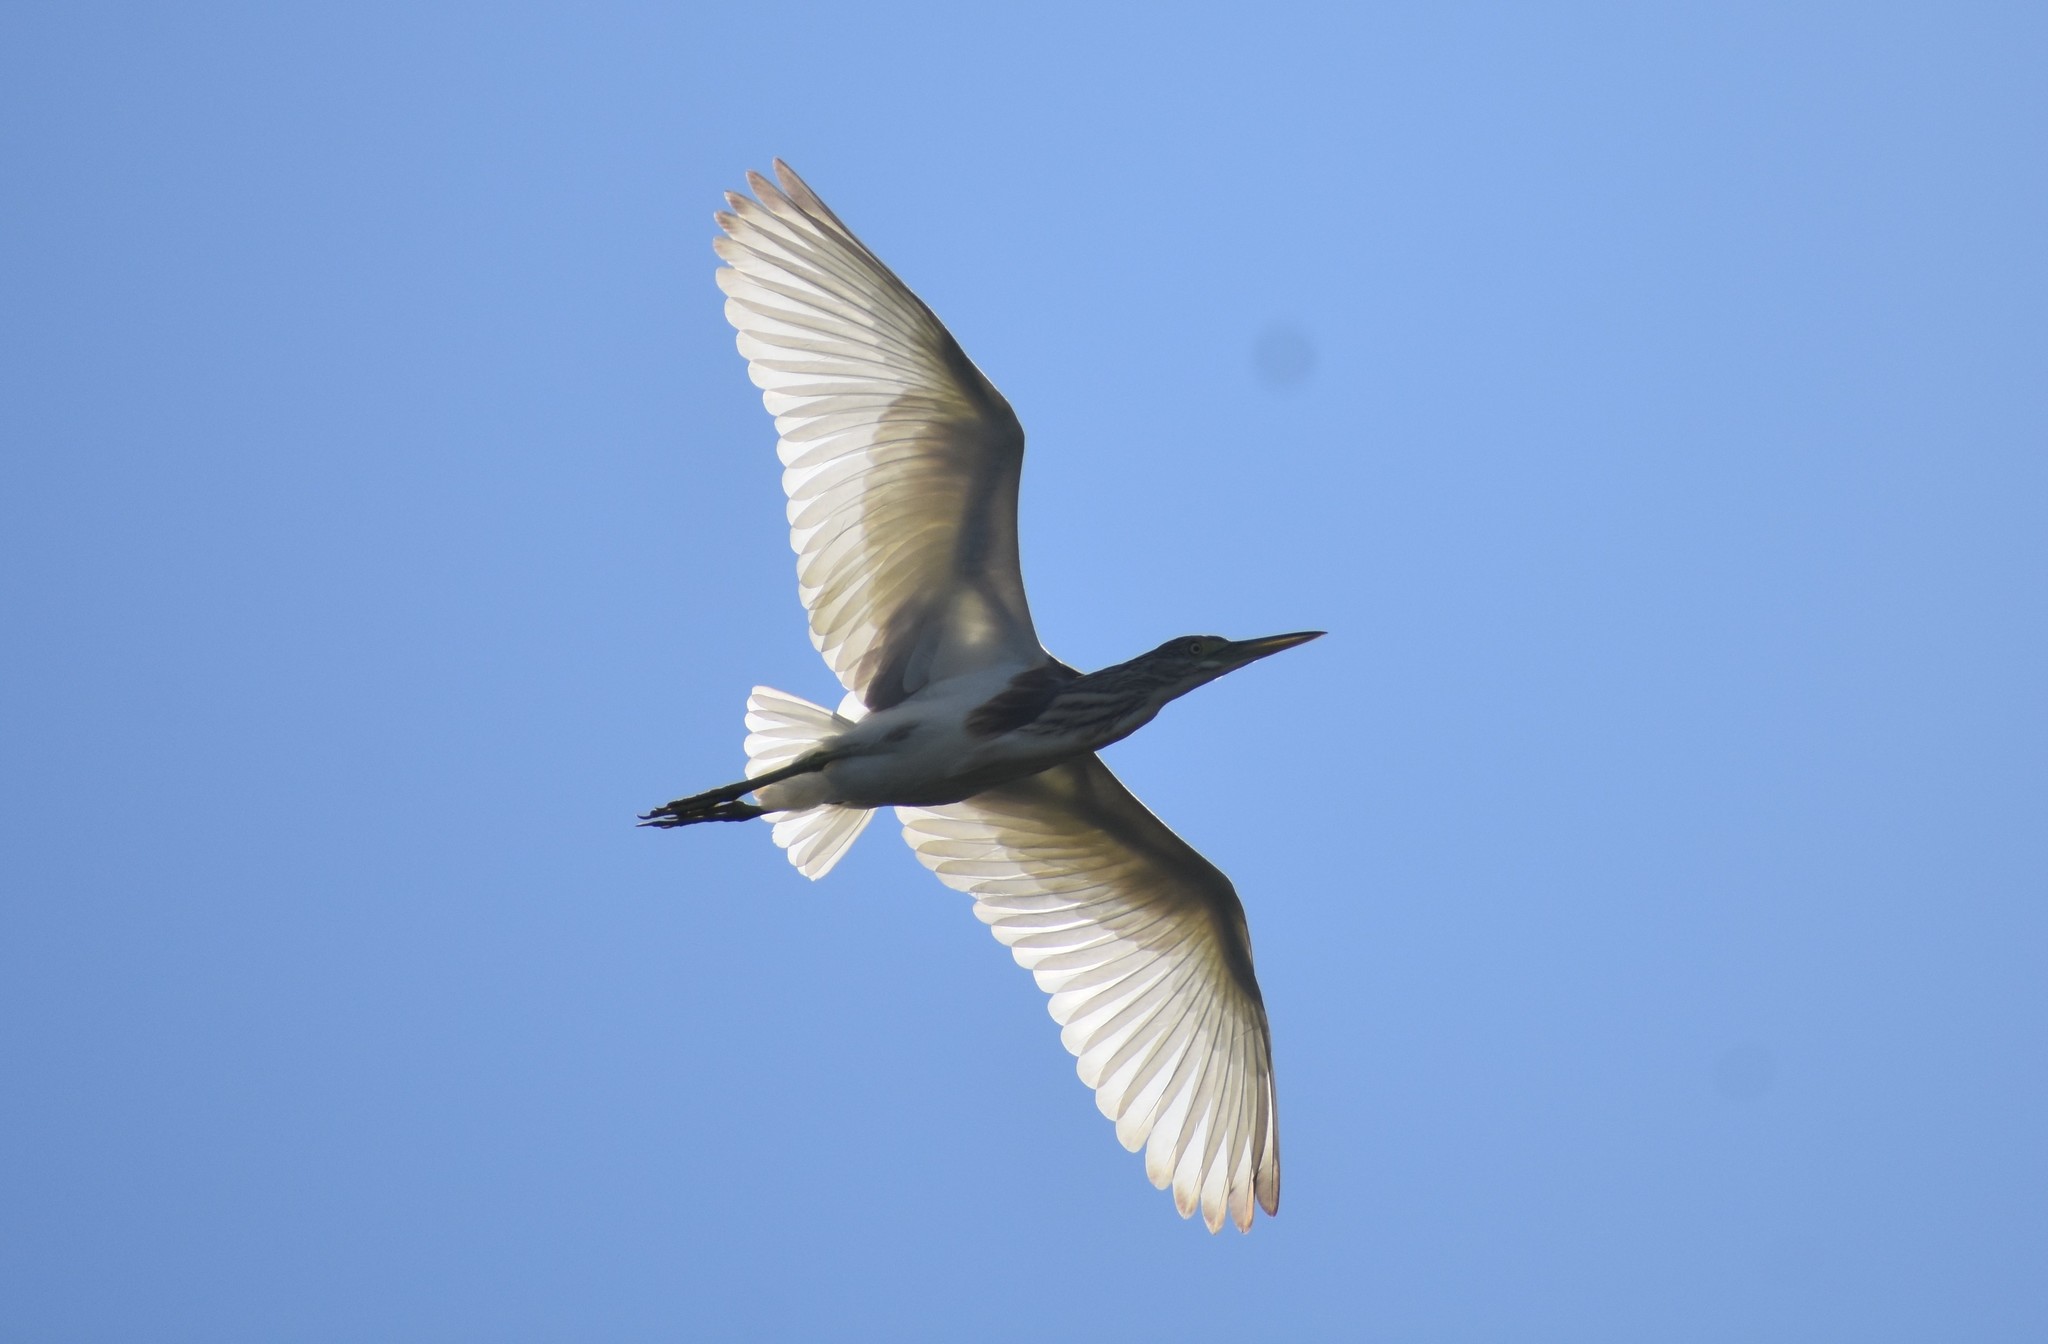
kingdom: Animalia
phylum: Chordata
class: Aves
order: Pelecaniformes
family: Ardeidae
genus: Ardeola
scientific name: Ardeola ralloides
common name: Squacco heron
